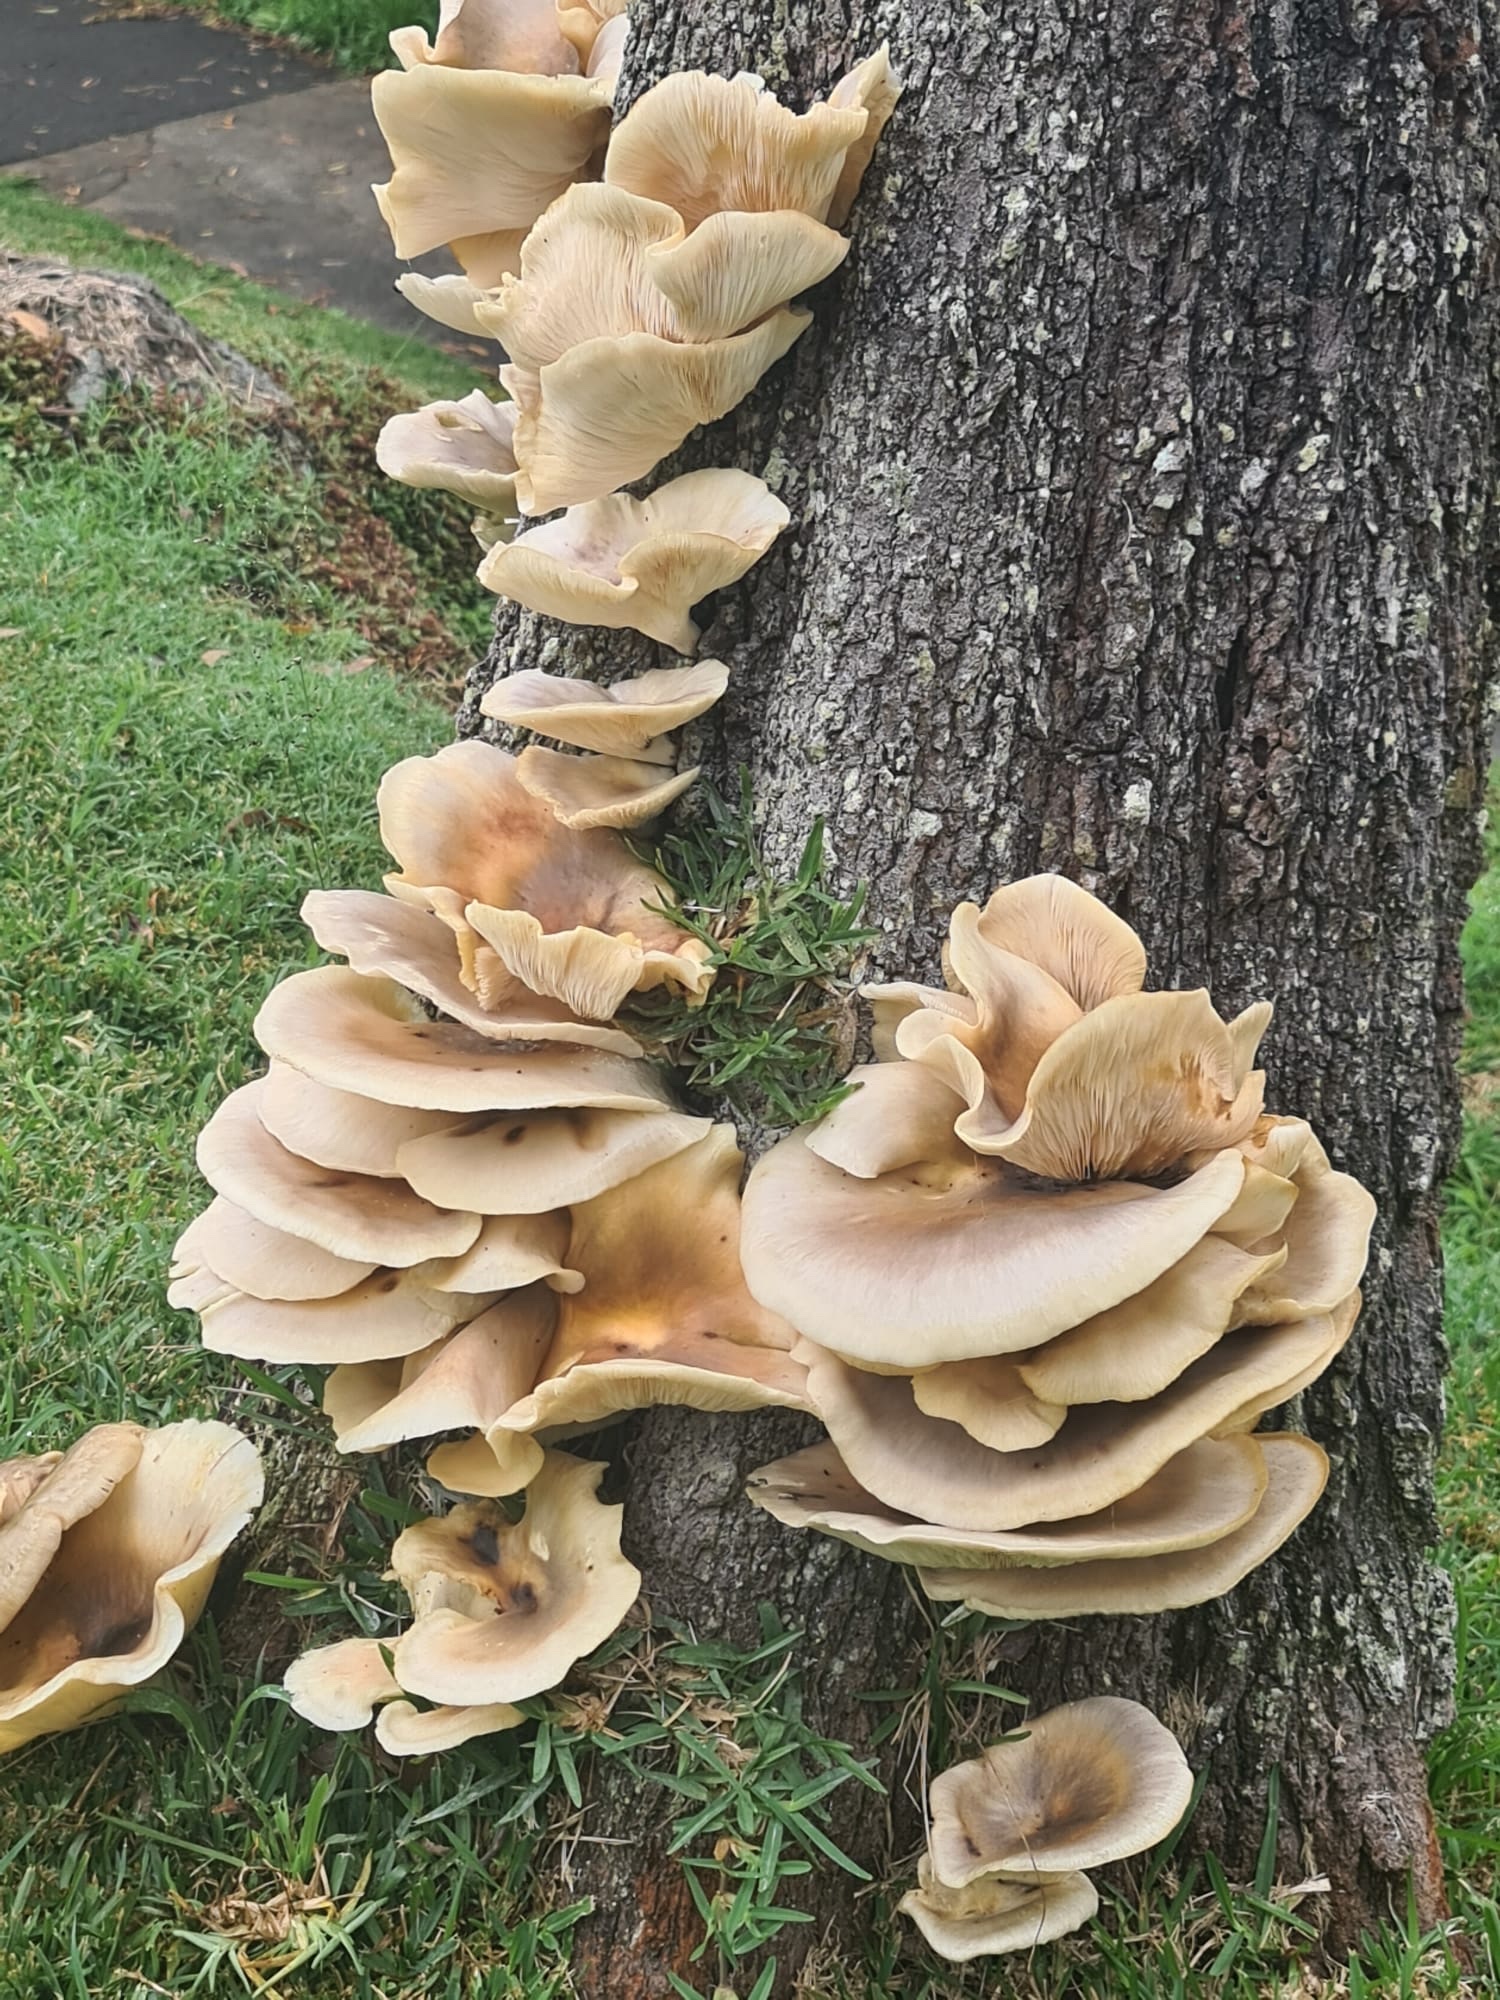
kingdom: Fungi
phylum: Basidiomycota
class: Agaricomycetes
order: Agaricales
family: Omphalotaceae
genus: Omphalotus
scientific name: Omphalotus nidiformis
